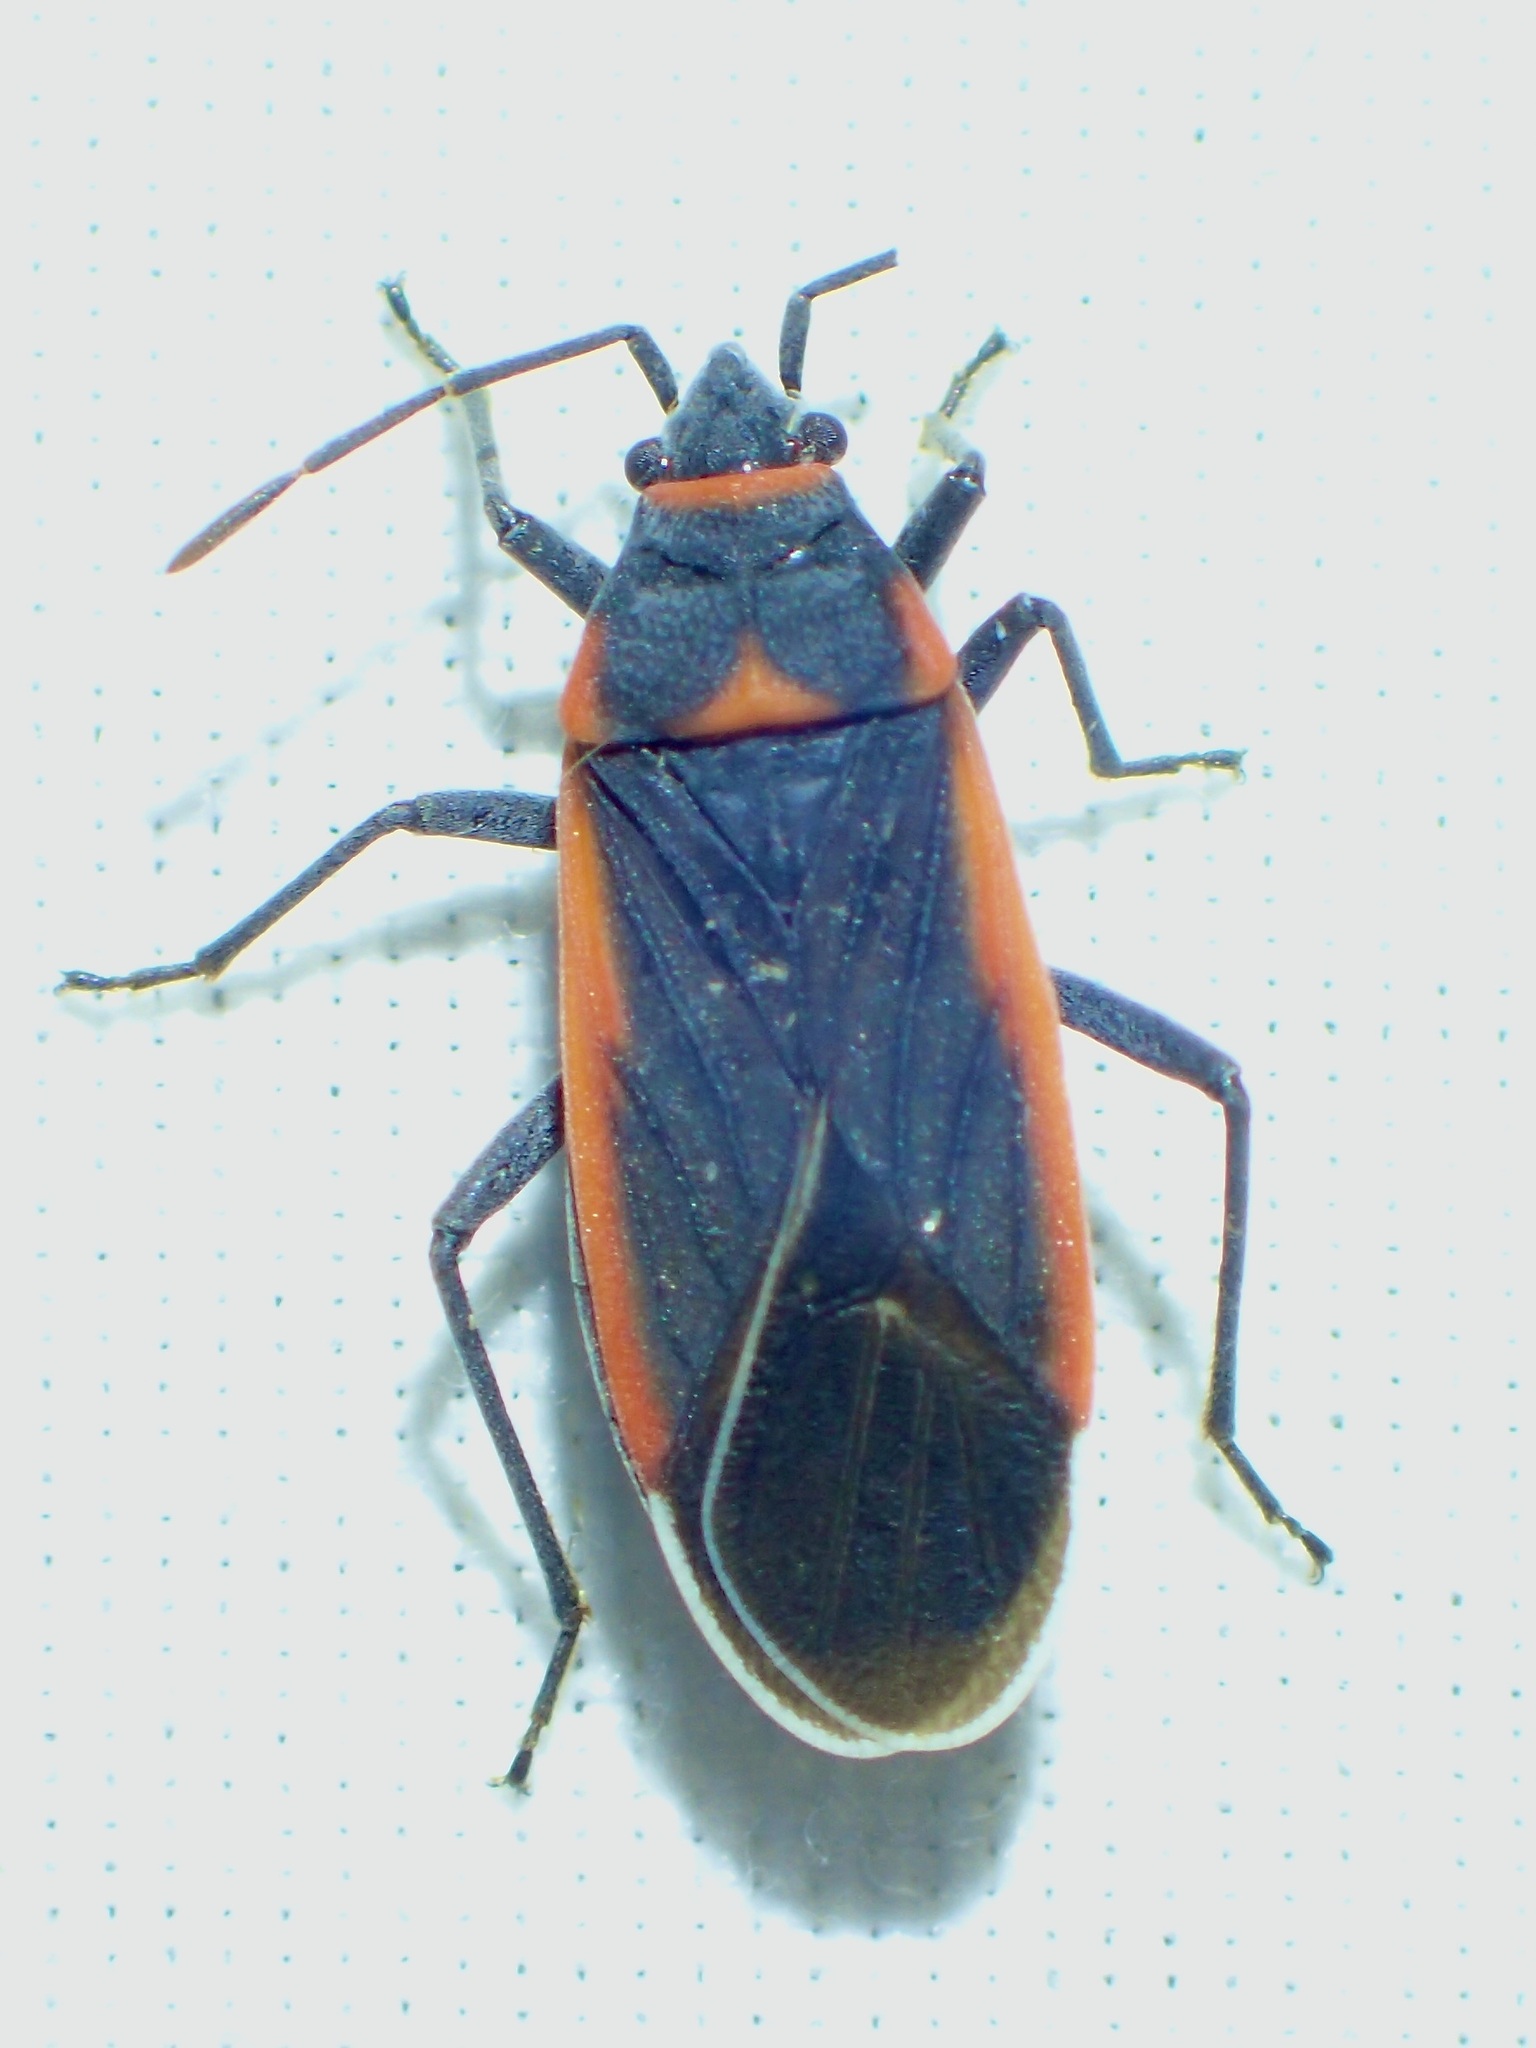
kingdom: Animalia
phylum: Arthropoda
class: Insecta
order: Hemiptera
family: Lygaeidae
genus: Melacoryphus
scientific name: Melacoryphus lateralis
